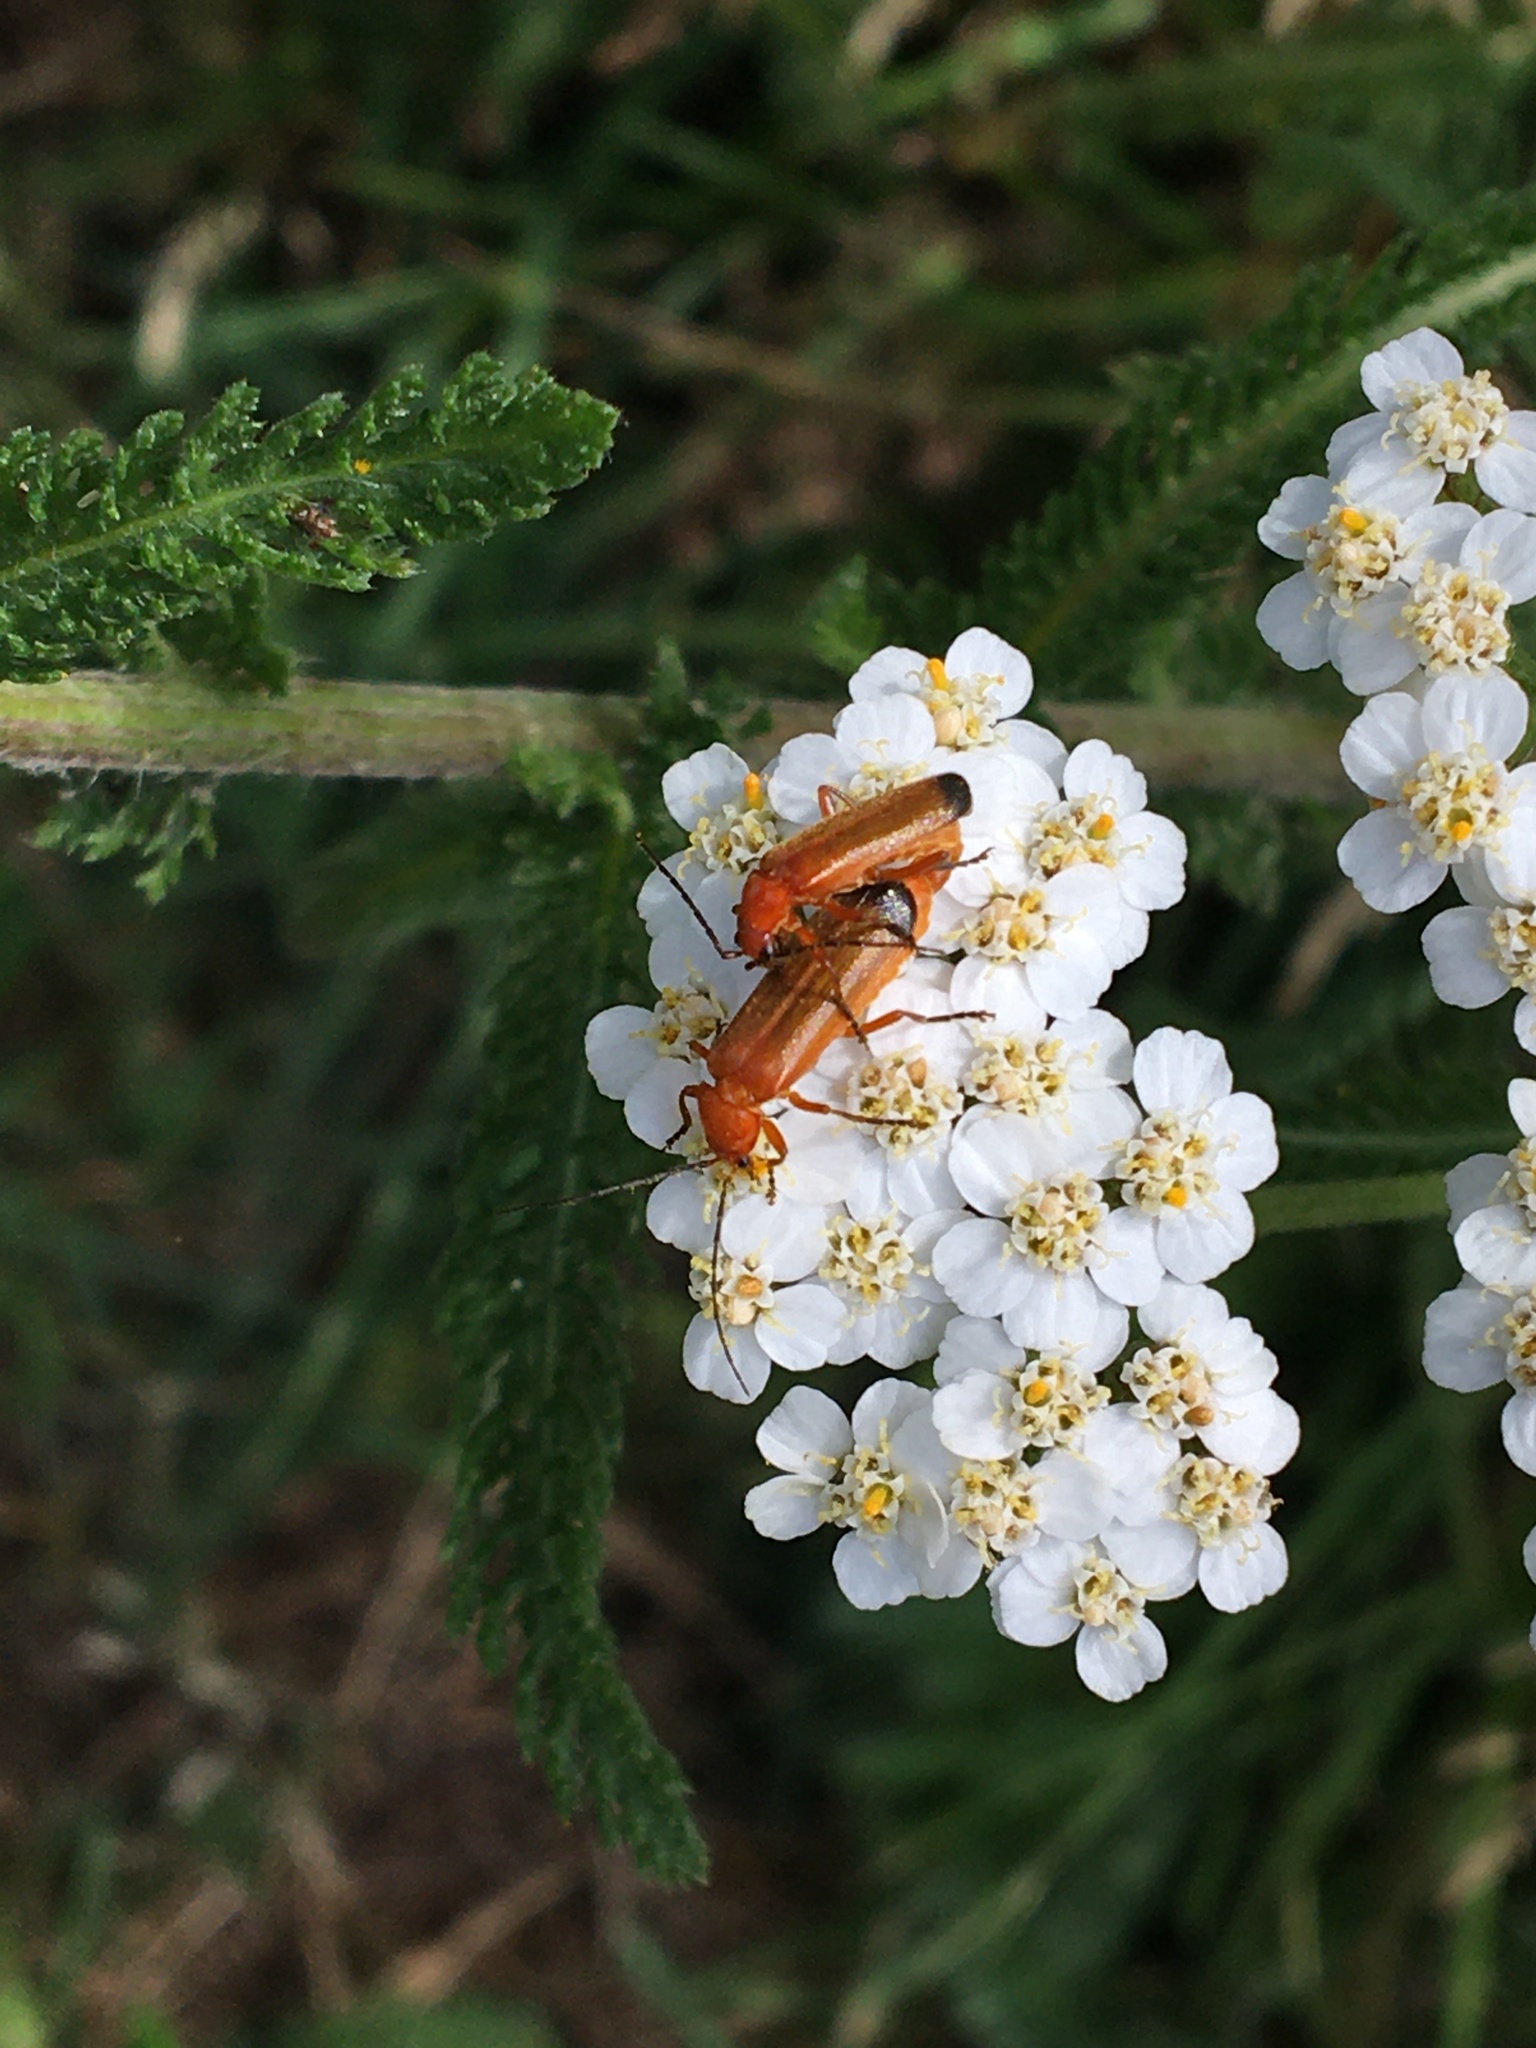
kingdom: Animalia
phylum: Arthropoda
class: Insecta
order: Coleoptera
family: Cantharidae
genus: Rhagonycha
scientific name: Rhagonycha fulva
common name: Common red soldier beetle
